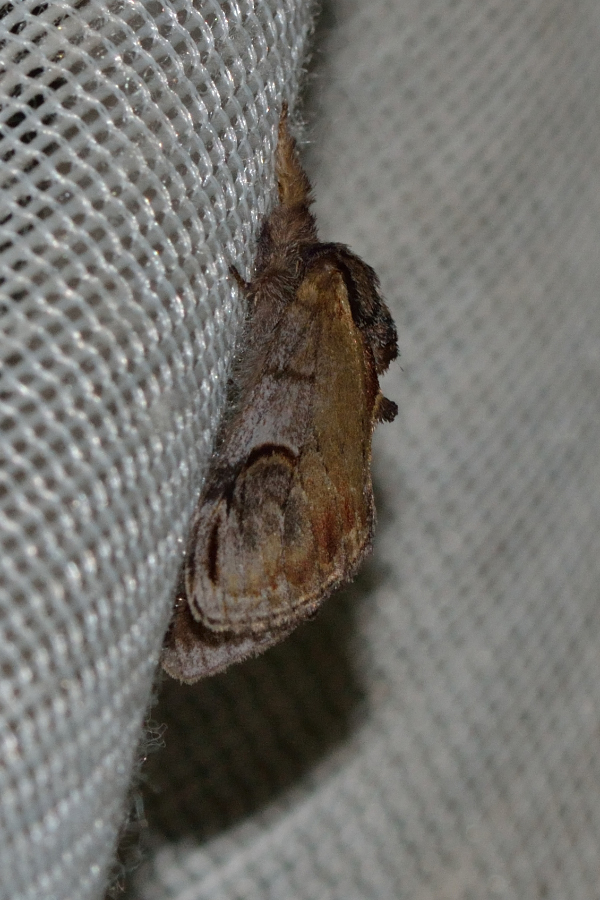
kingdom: Animalia
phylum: Arthropoda
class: Insecta
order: Lepidoptera
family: Notodontidae
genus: Notodonta
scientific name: Notodonta ziczac
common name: Pebble prominent
